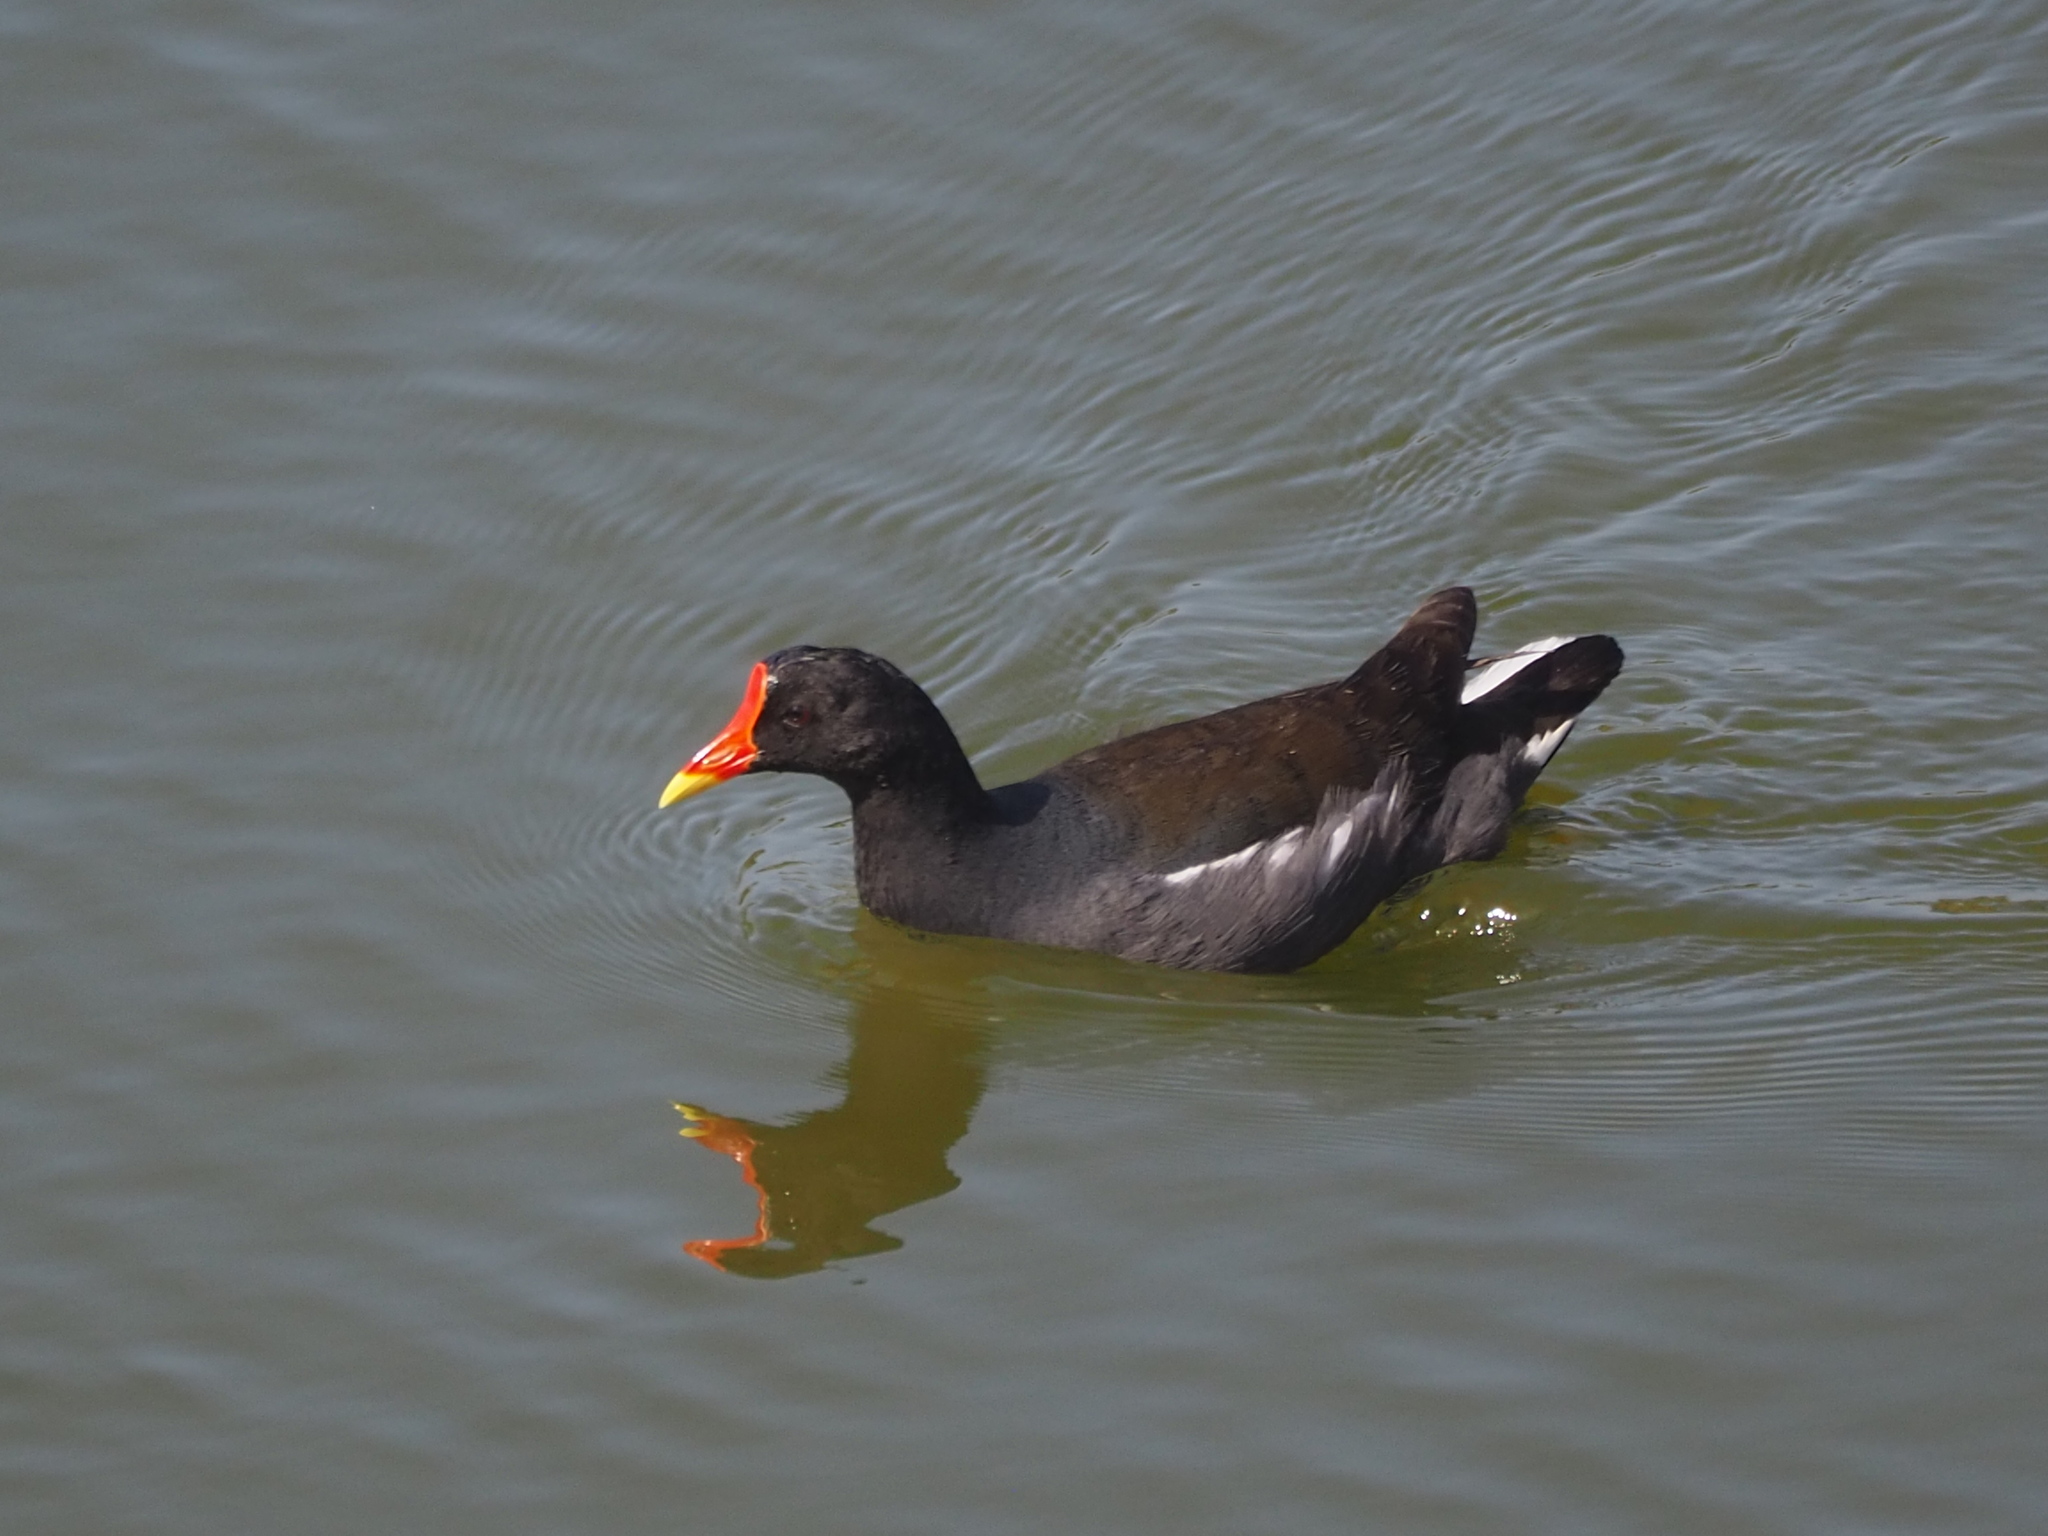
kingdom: Animalia
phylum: Chordata
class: Aves
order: Gruiformes
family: Rallidae
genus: Gallinula
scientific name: Gallinula chloropus
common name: Common moorhen
